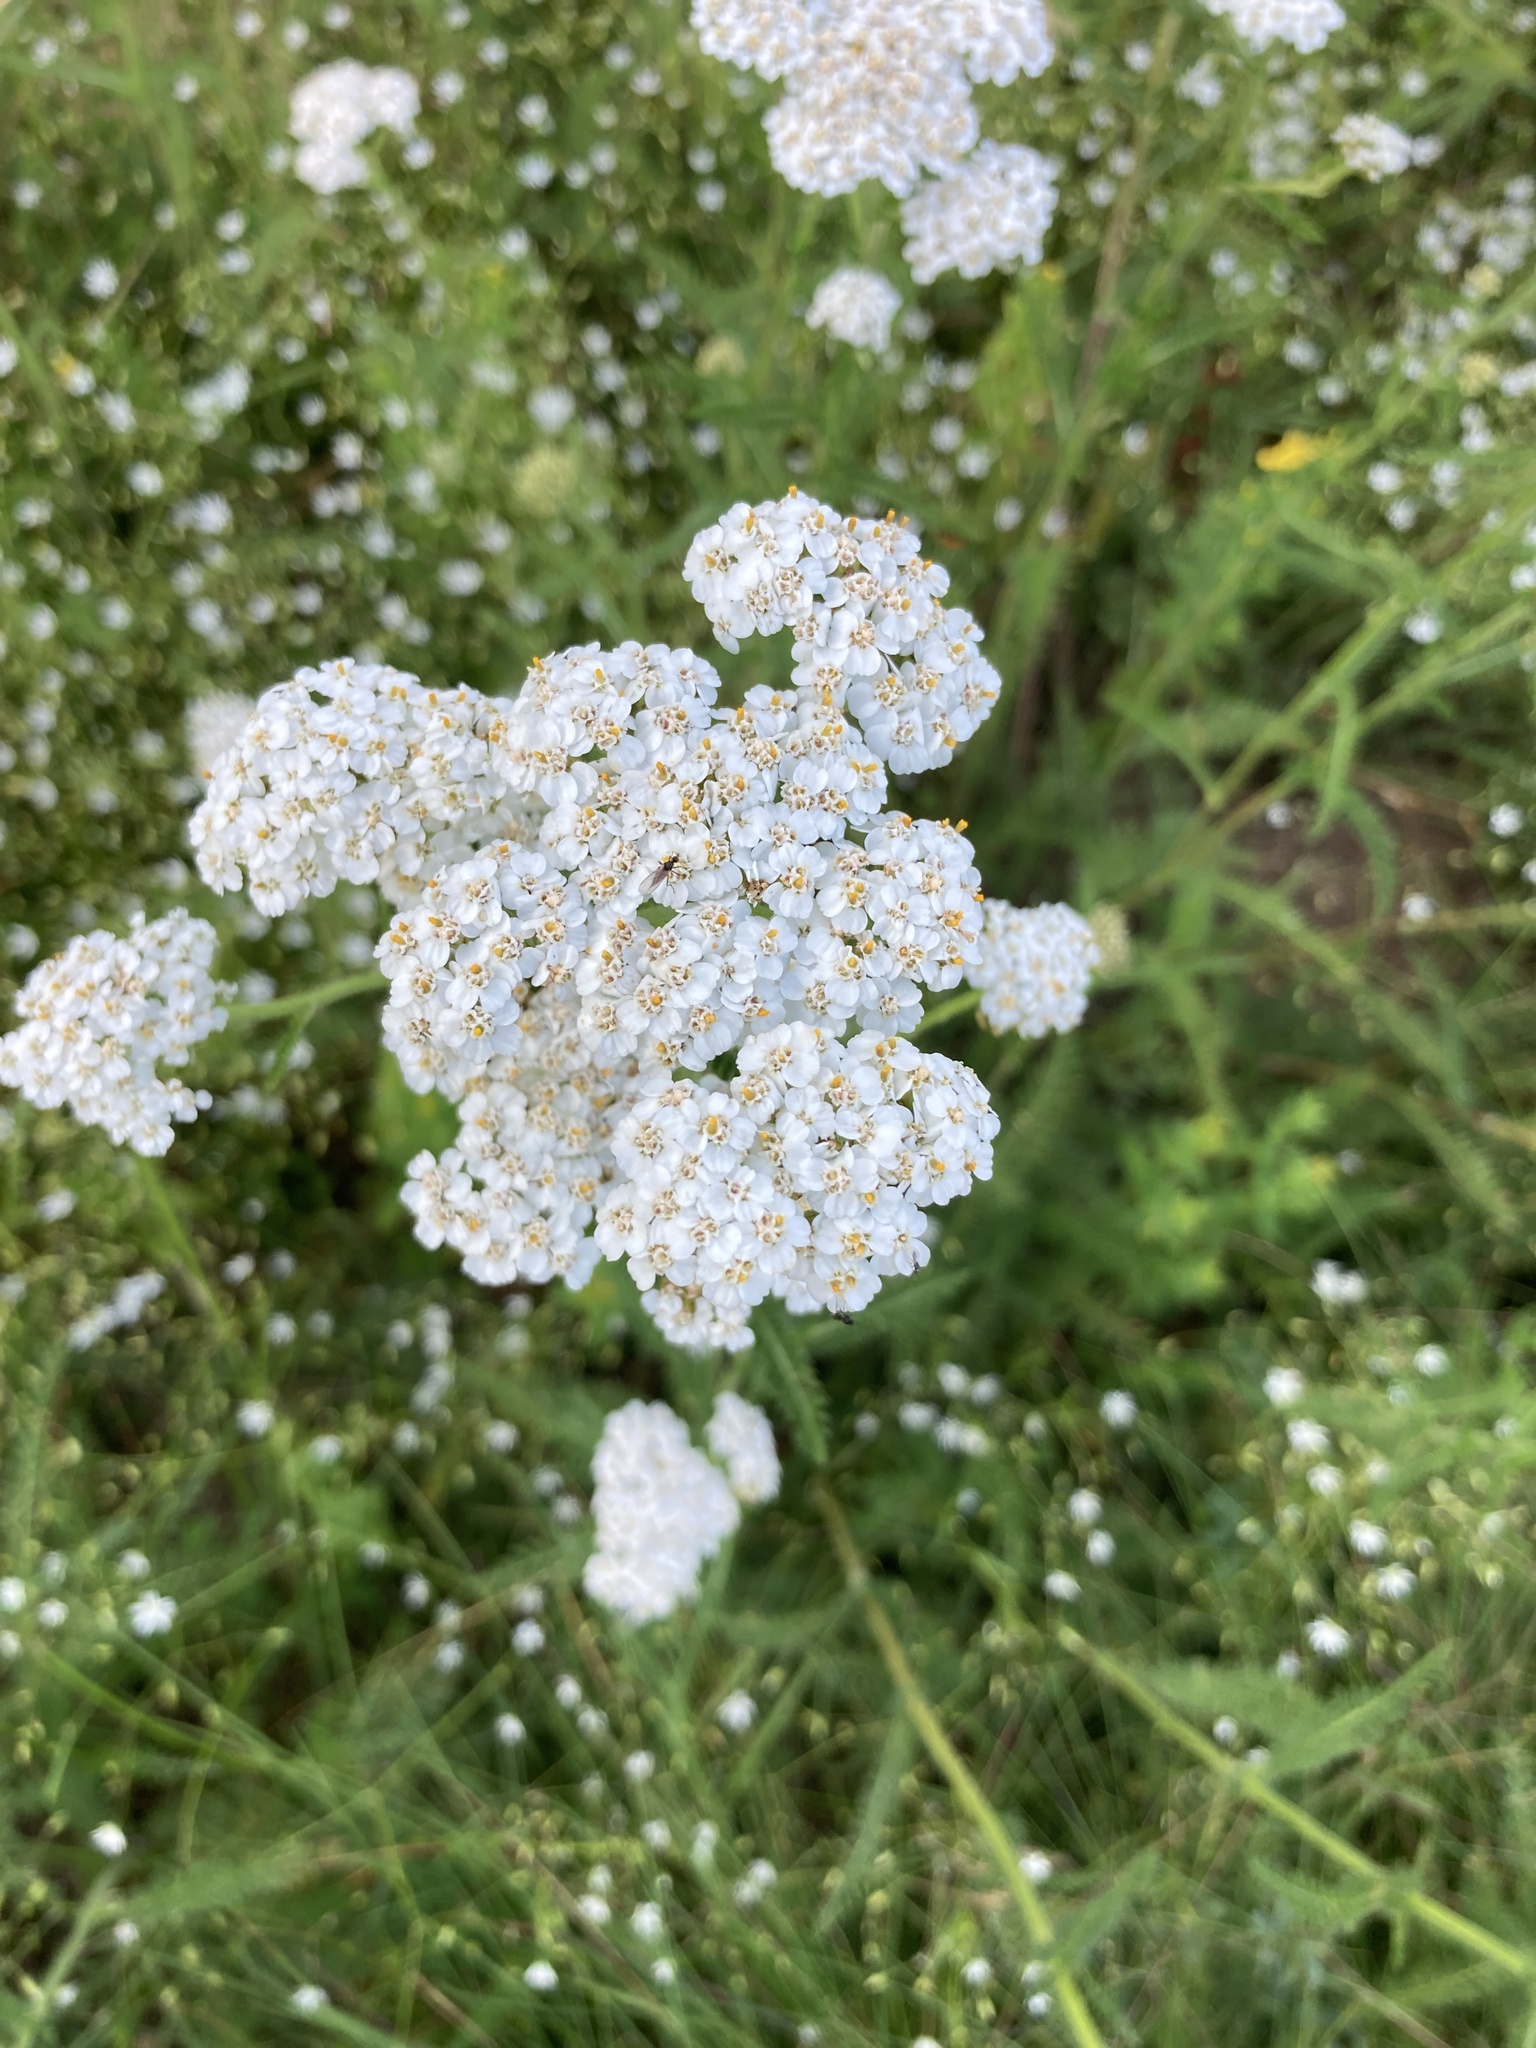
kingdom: Plantae
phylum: Tracheophyta
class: Magnoliopsida
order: Asterales
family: Asteraceae
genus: Achillea
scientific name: Achillea millefolium
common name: Yarrow
